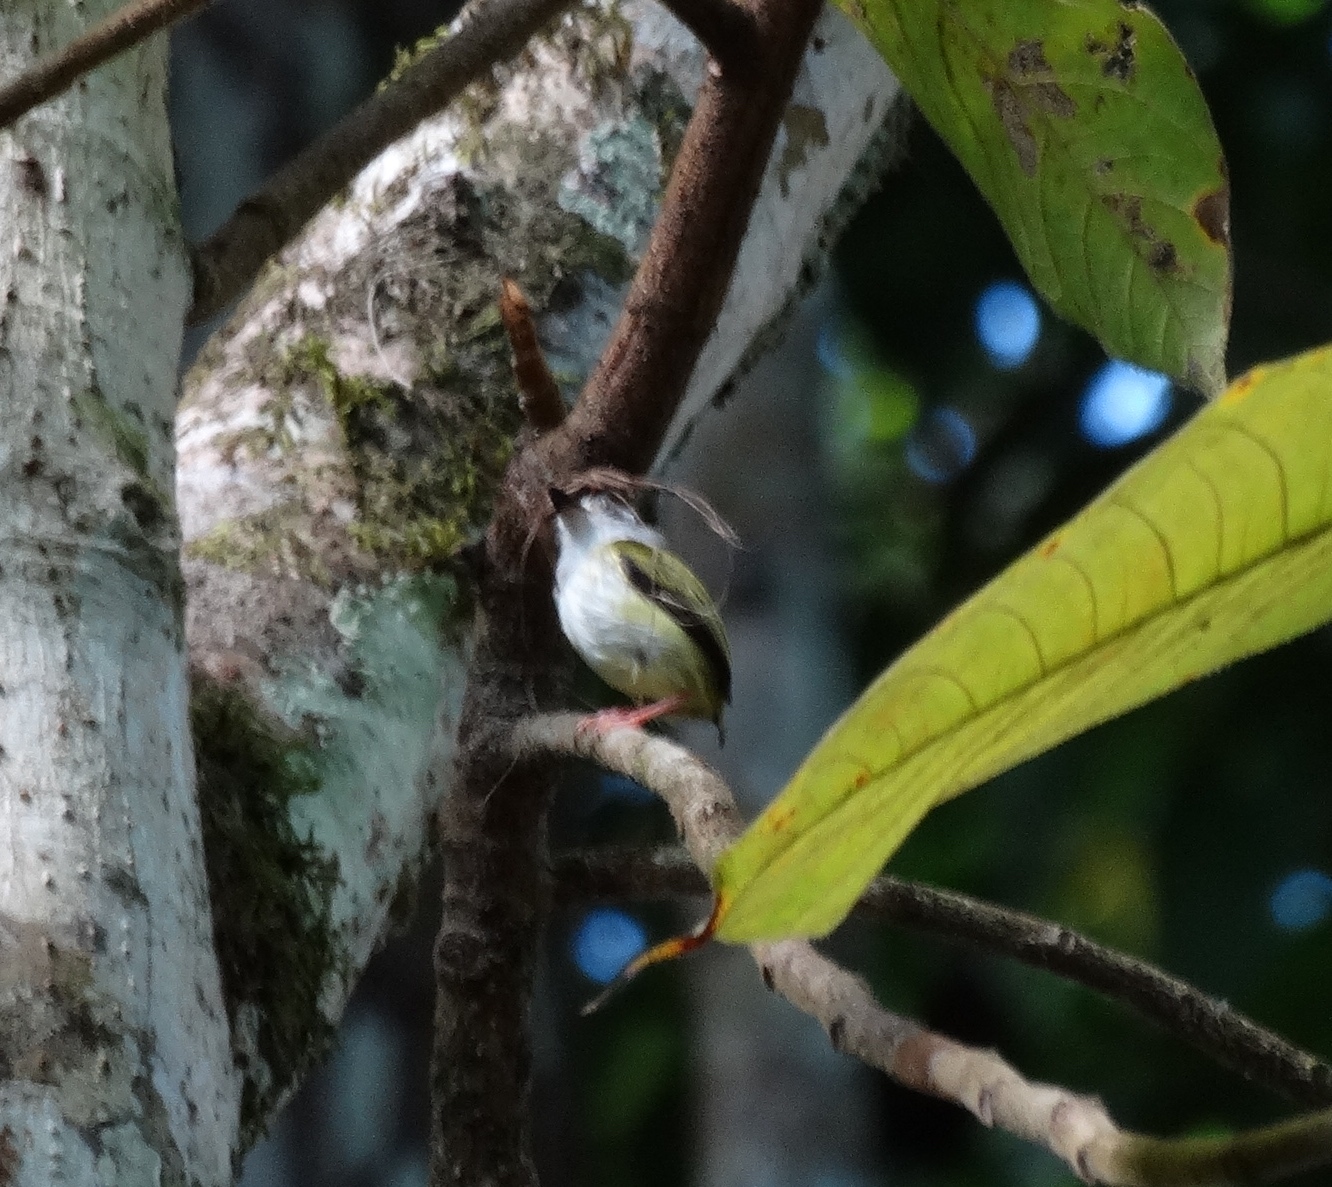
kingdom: Animalia
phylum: Chordata
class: Aves
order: Passeriformes
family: Tyrannidae
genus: Myiornis
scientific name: Myiornis atricapillus
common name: Black-capped pygmy-tyrant
